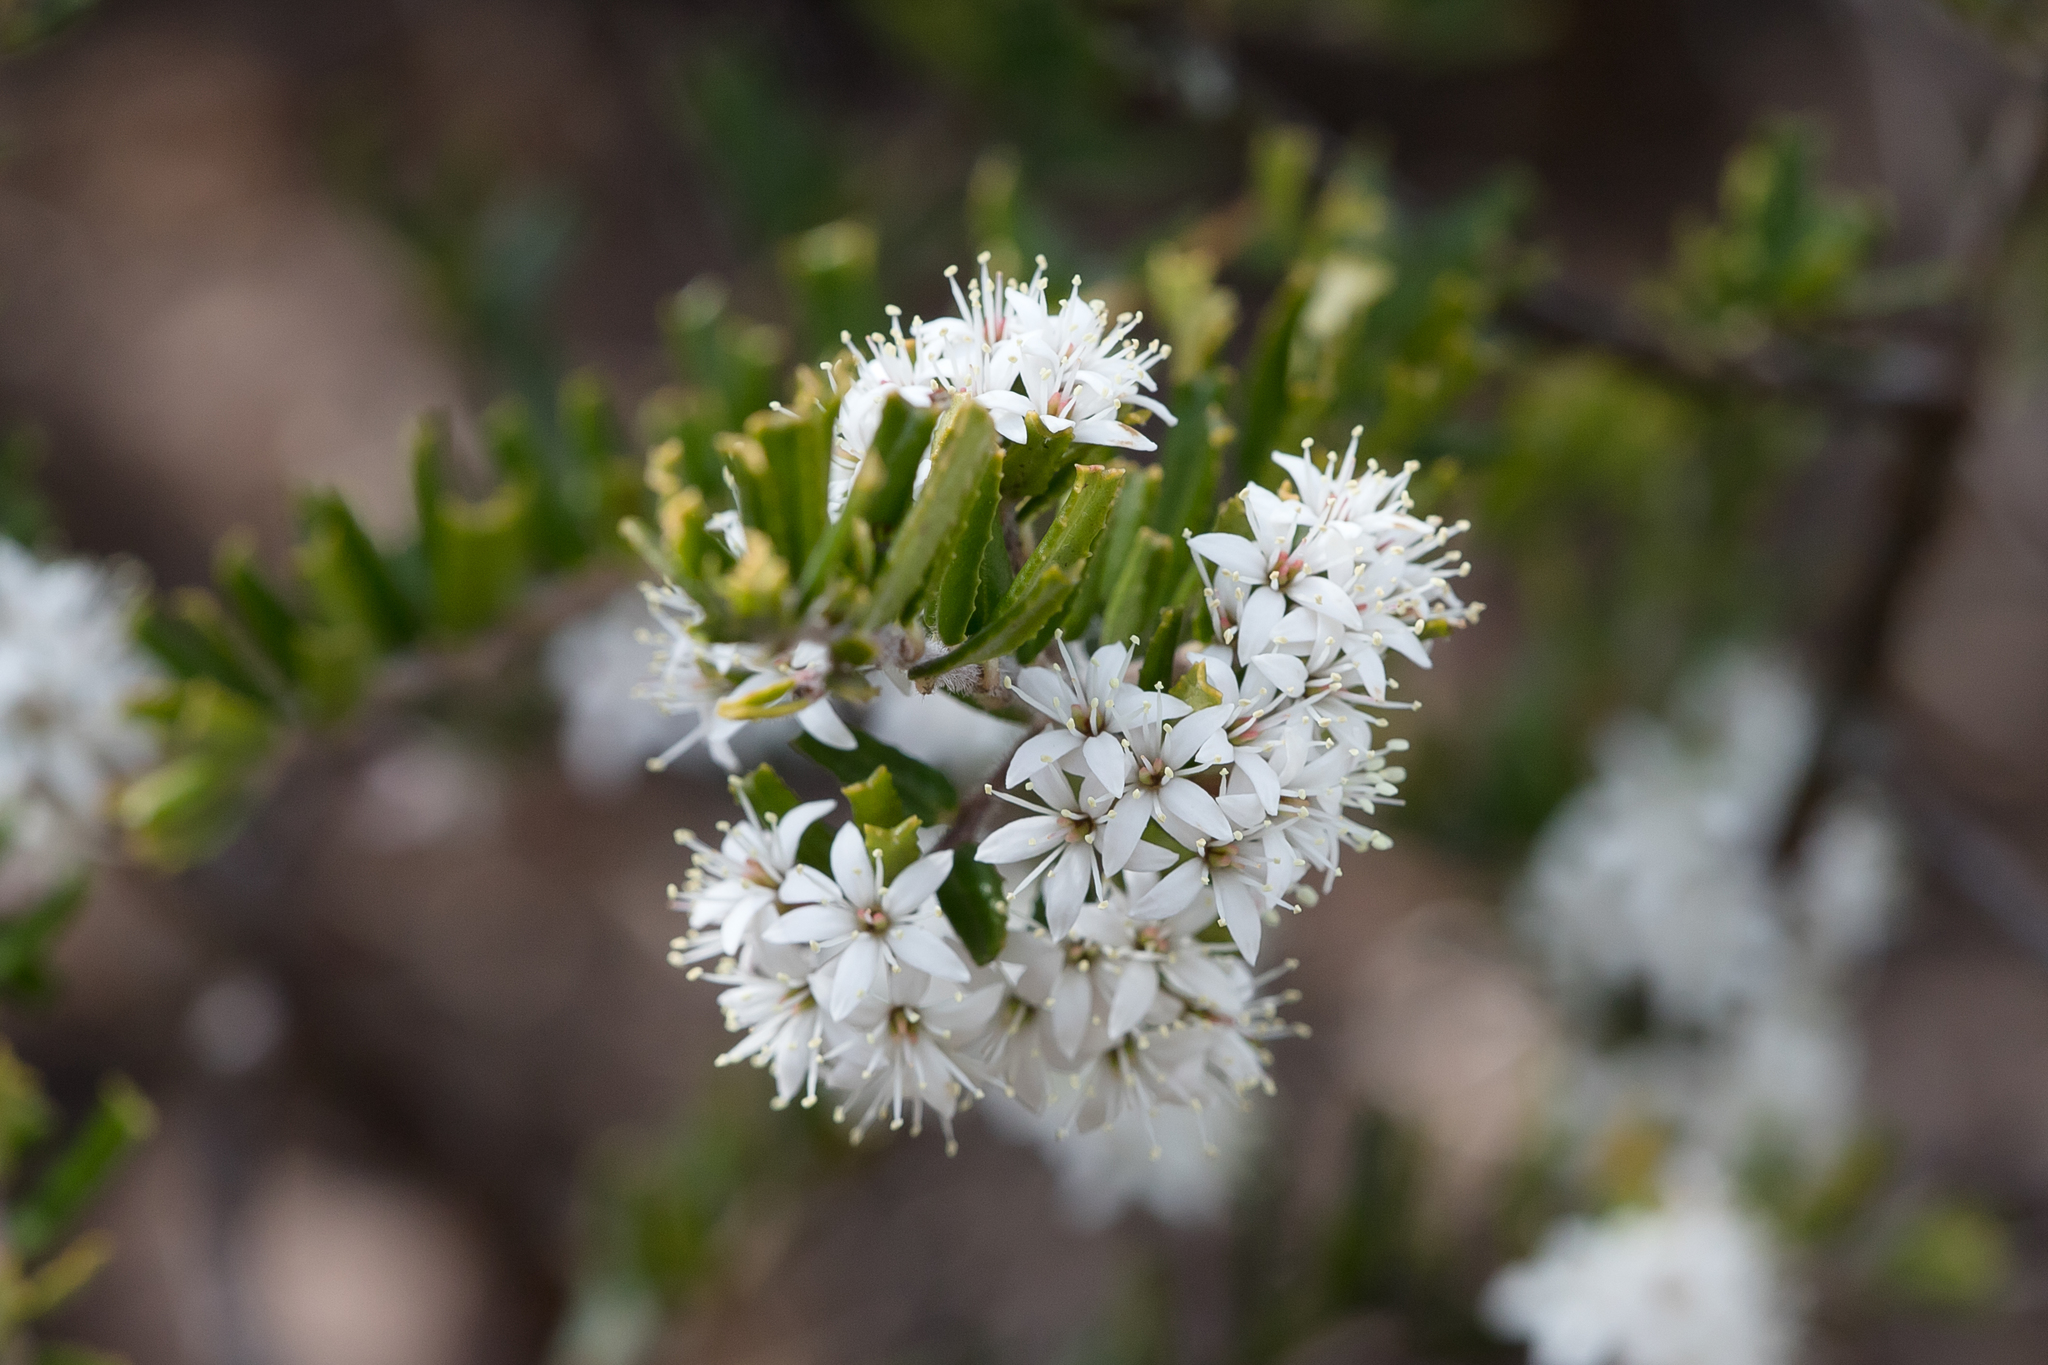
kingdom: Plantae
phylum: Tracheophyta
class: Magnoliopsida
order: Sapindales
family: Rutaceae
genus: Leionema
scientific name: Leionema bilobum
